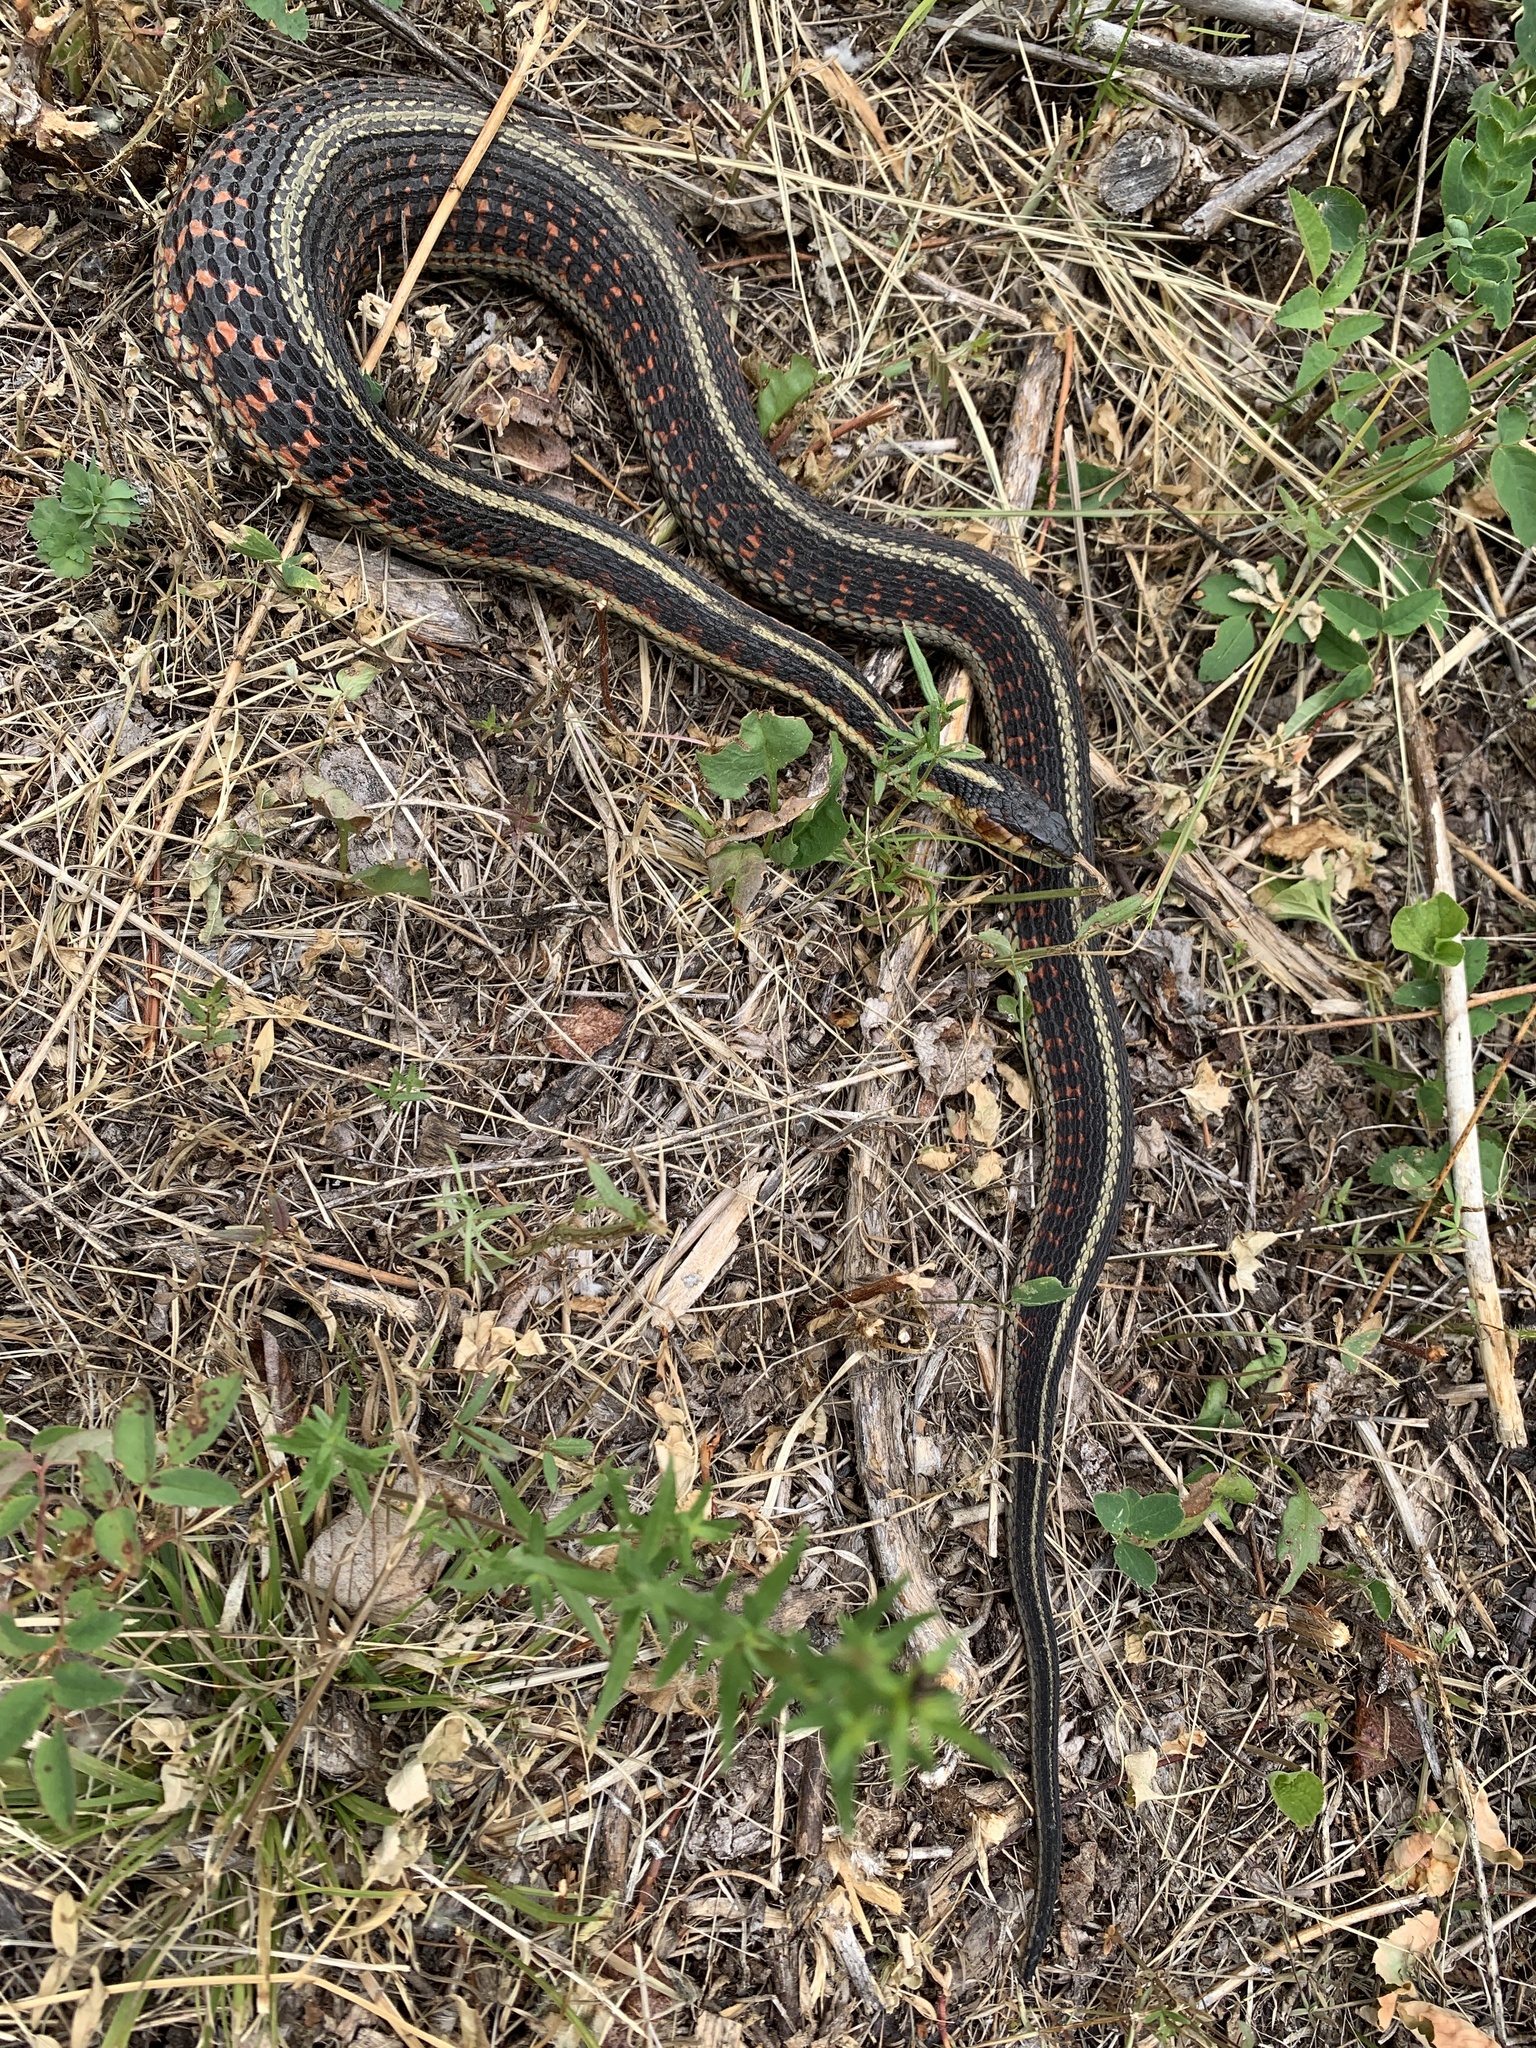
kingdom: Animalia
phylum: Chordata
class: Squamata
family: Colubridae
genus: Thamnophis
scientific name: Thamnophis sirtalis
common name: Common garter snake
